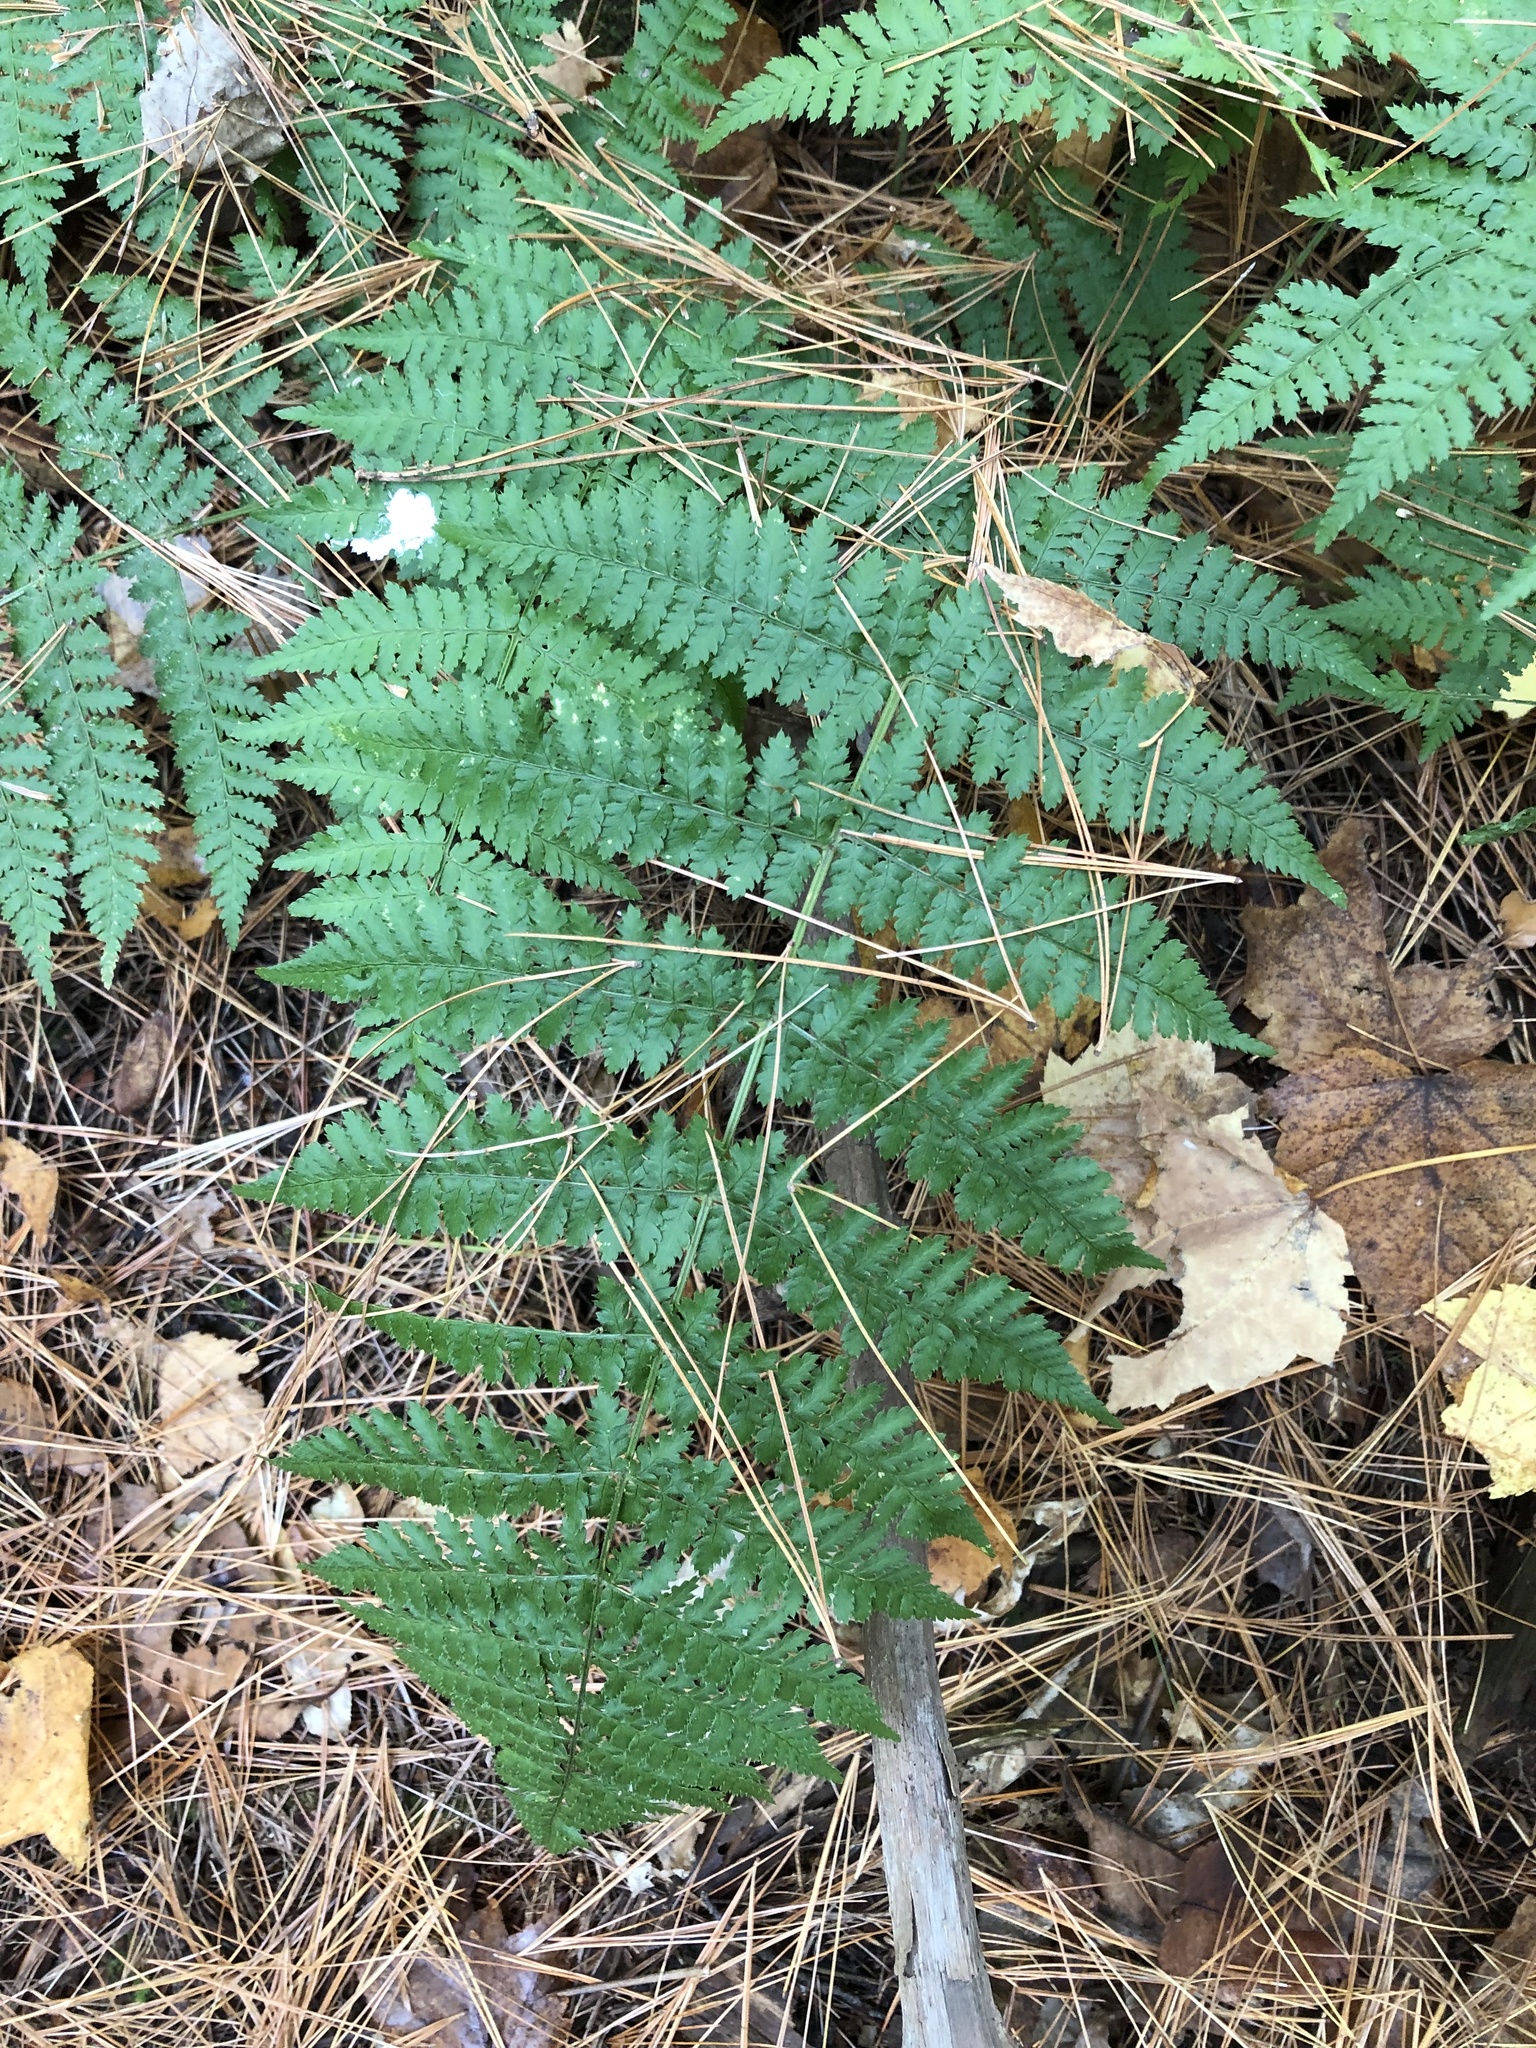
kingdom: Plantae
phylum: Tracheophyta
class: Polypodiopsida
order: Polypodiales
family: Dryopteridaceae
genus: Dryopteris
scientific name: Dryopteris intermedia
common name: Evergreen wood fern
